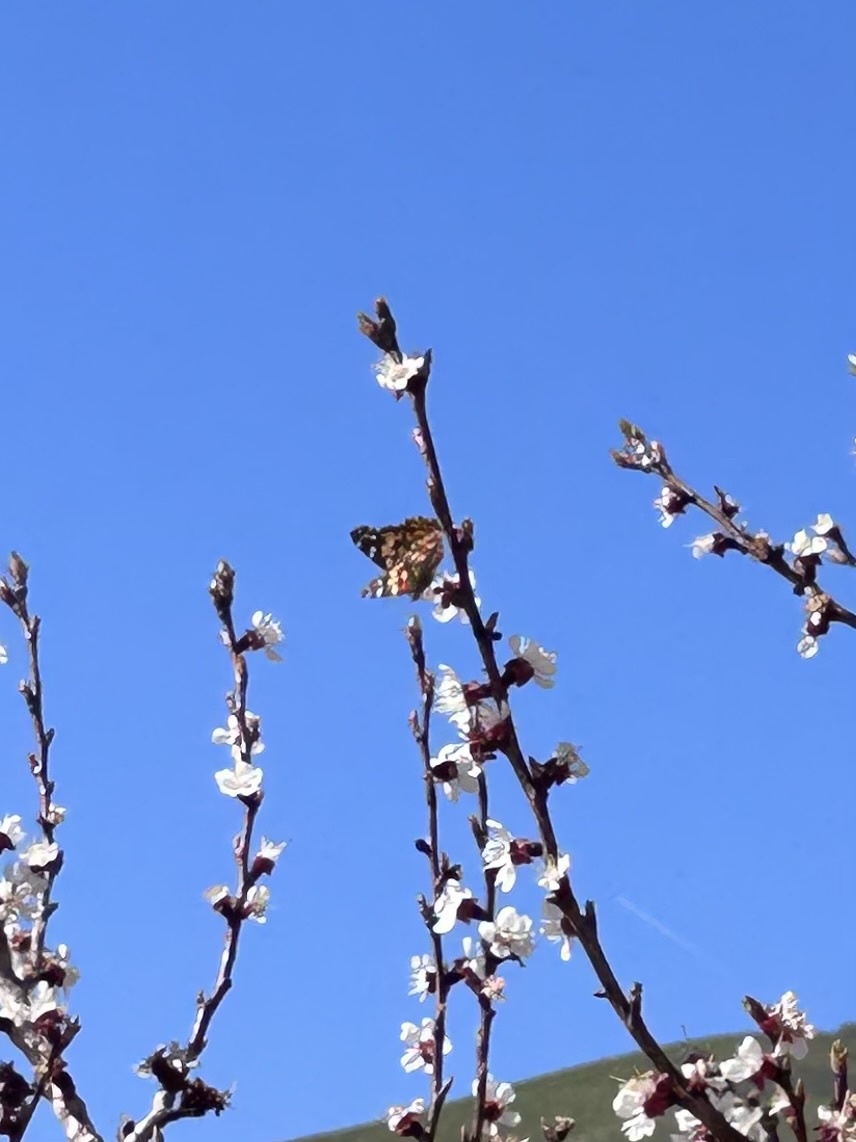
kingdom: Animalia
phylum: Arthropoda
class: Insecta
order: Lepidoptera
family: Nymphalidae
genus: Vanessa
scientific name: Vanessa cardui
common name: Painted lady
